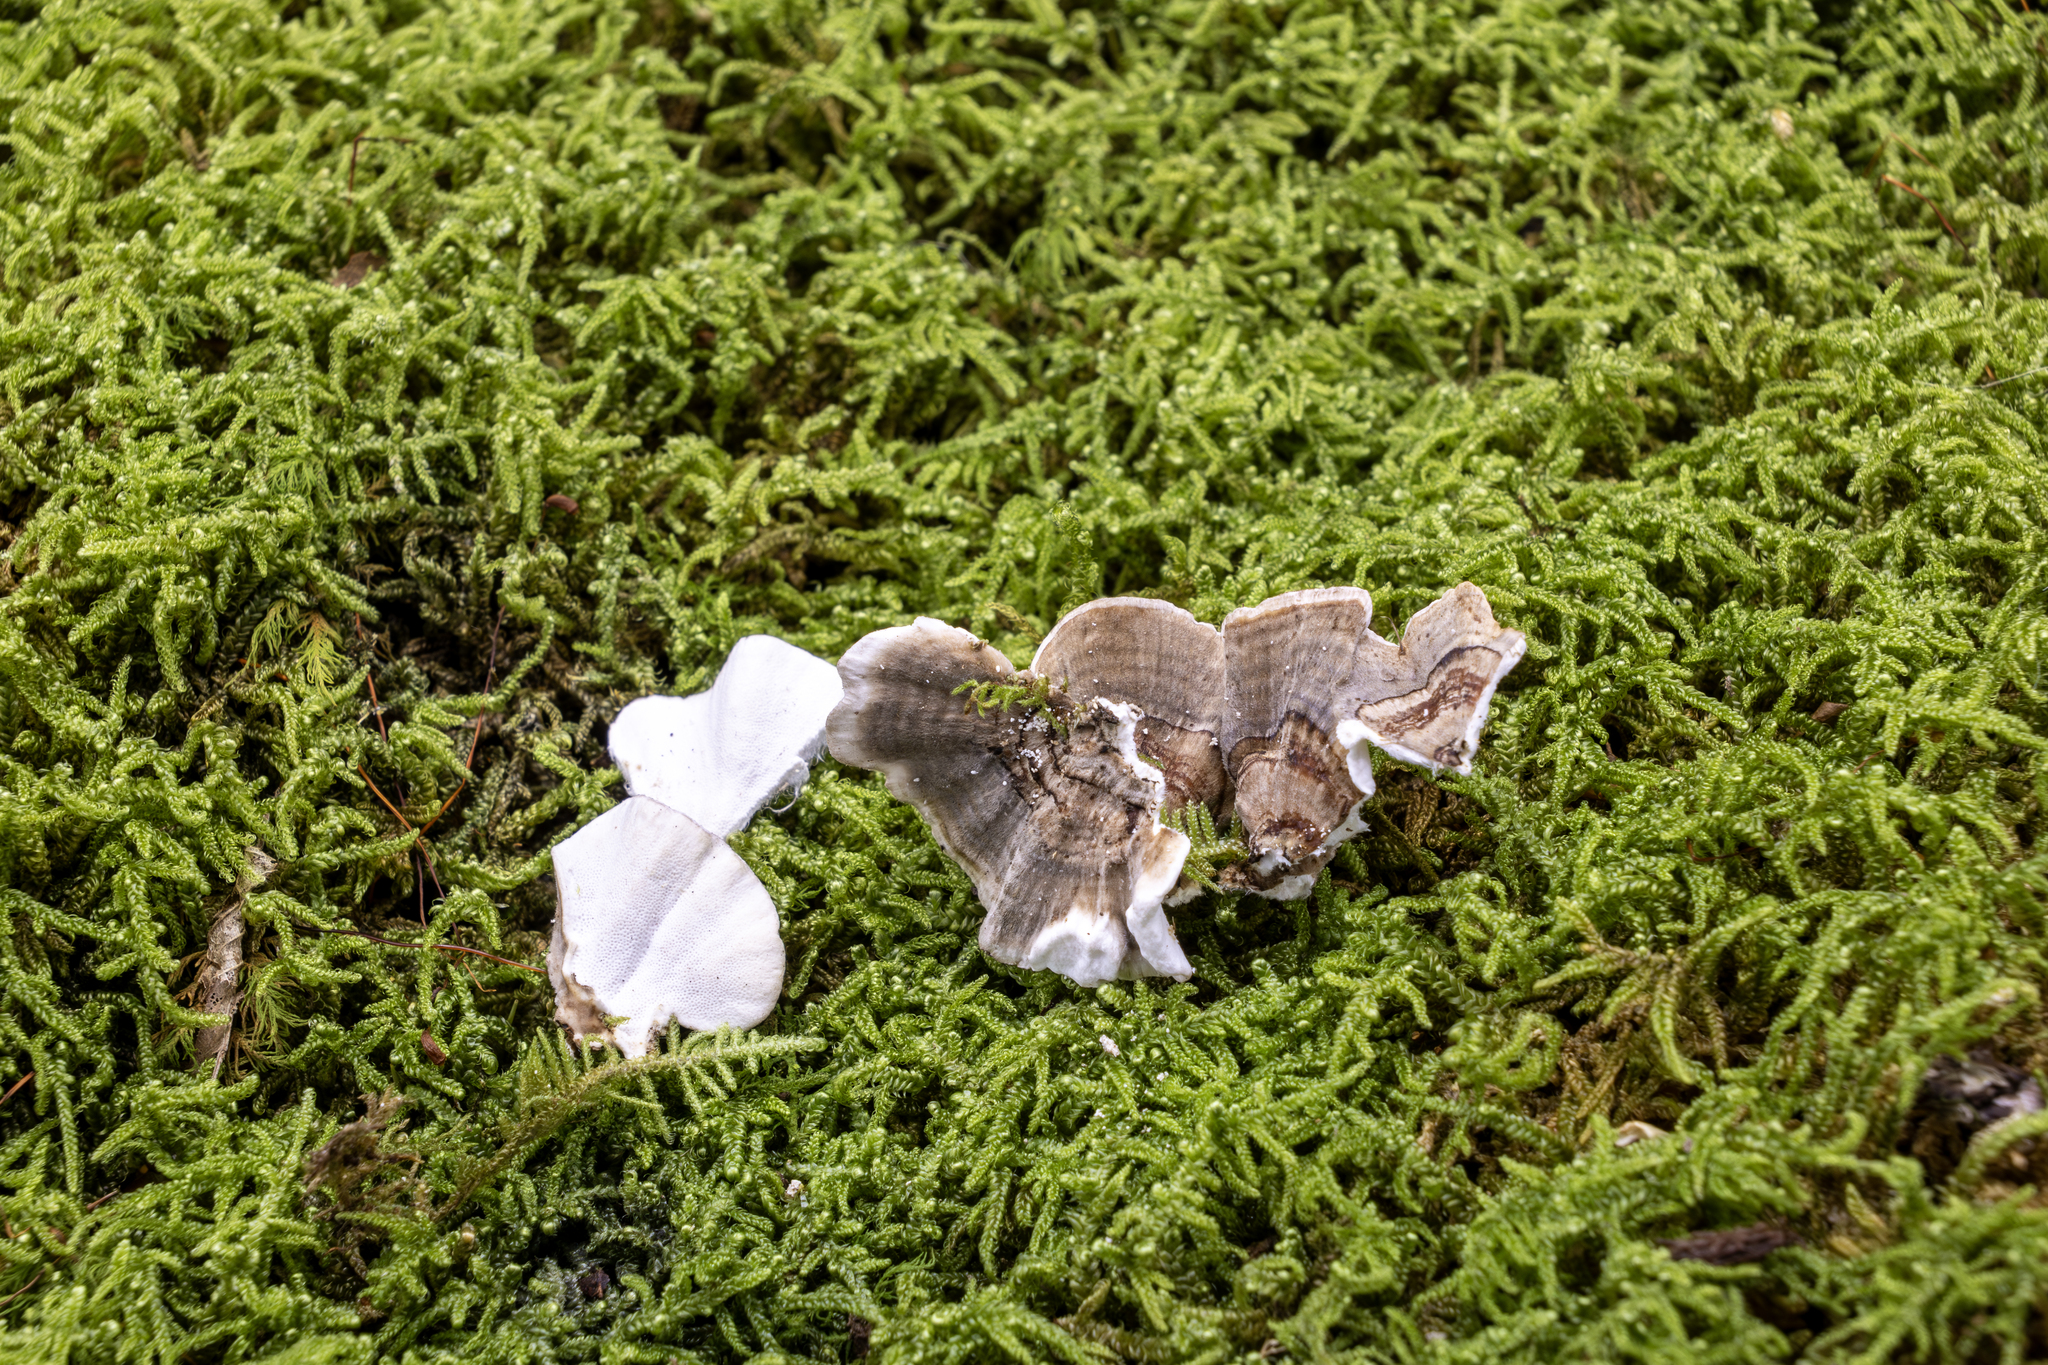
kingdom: Fungi
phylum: Basidiomycota
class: Agaricomycetes
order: Polyporales
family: Polyporaceae
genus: Trametes
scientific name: Trametes versicolor
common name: Turkeytail
